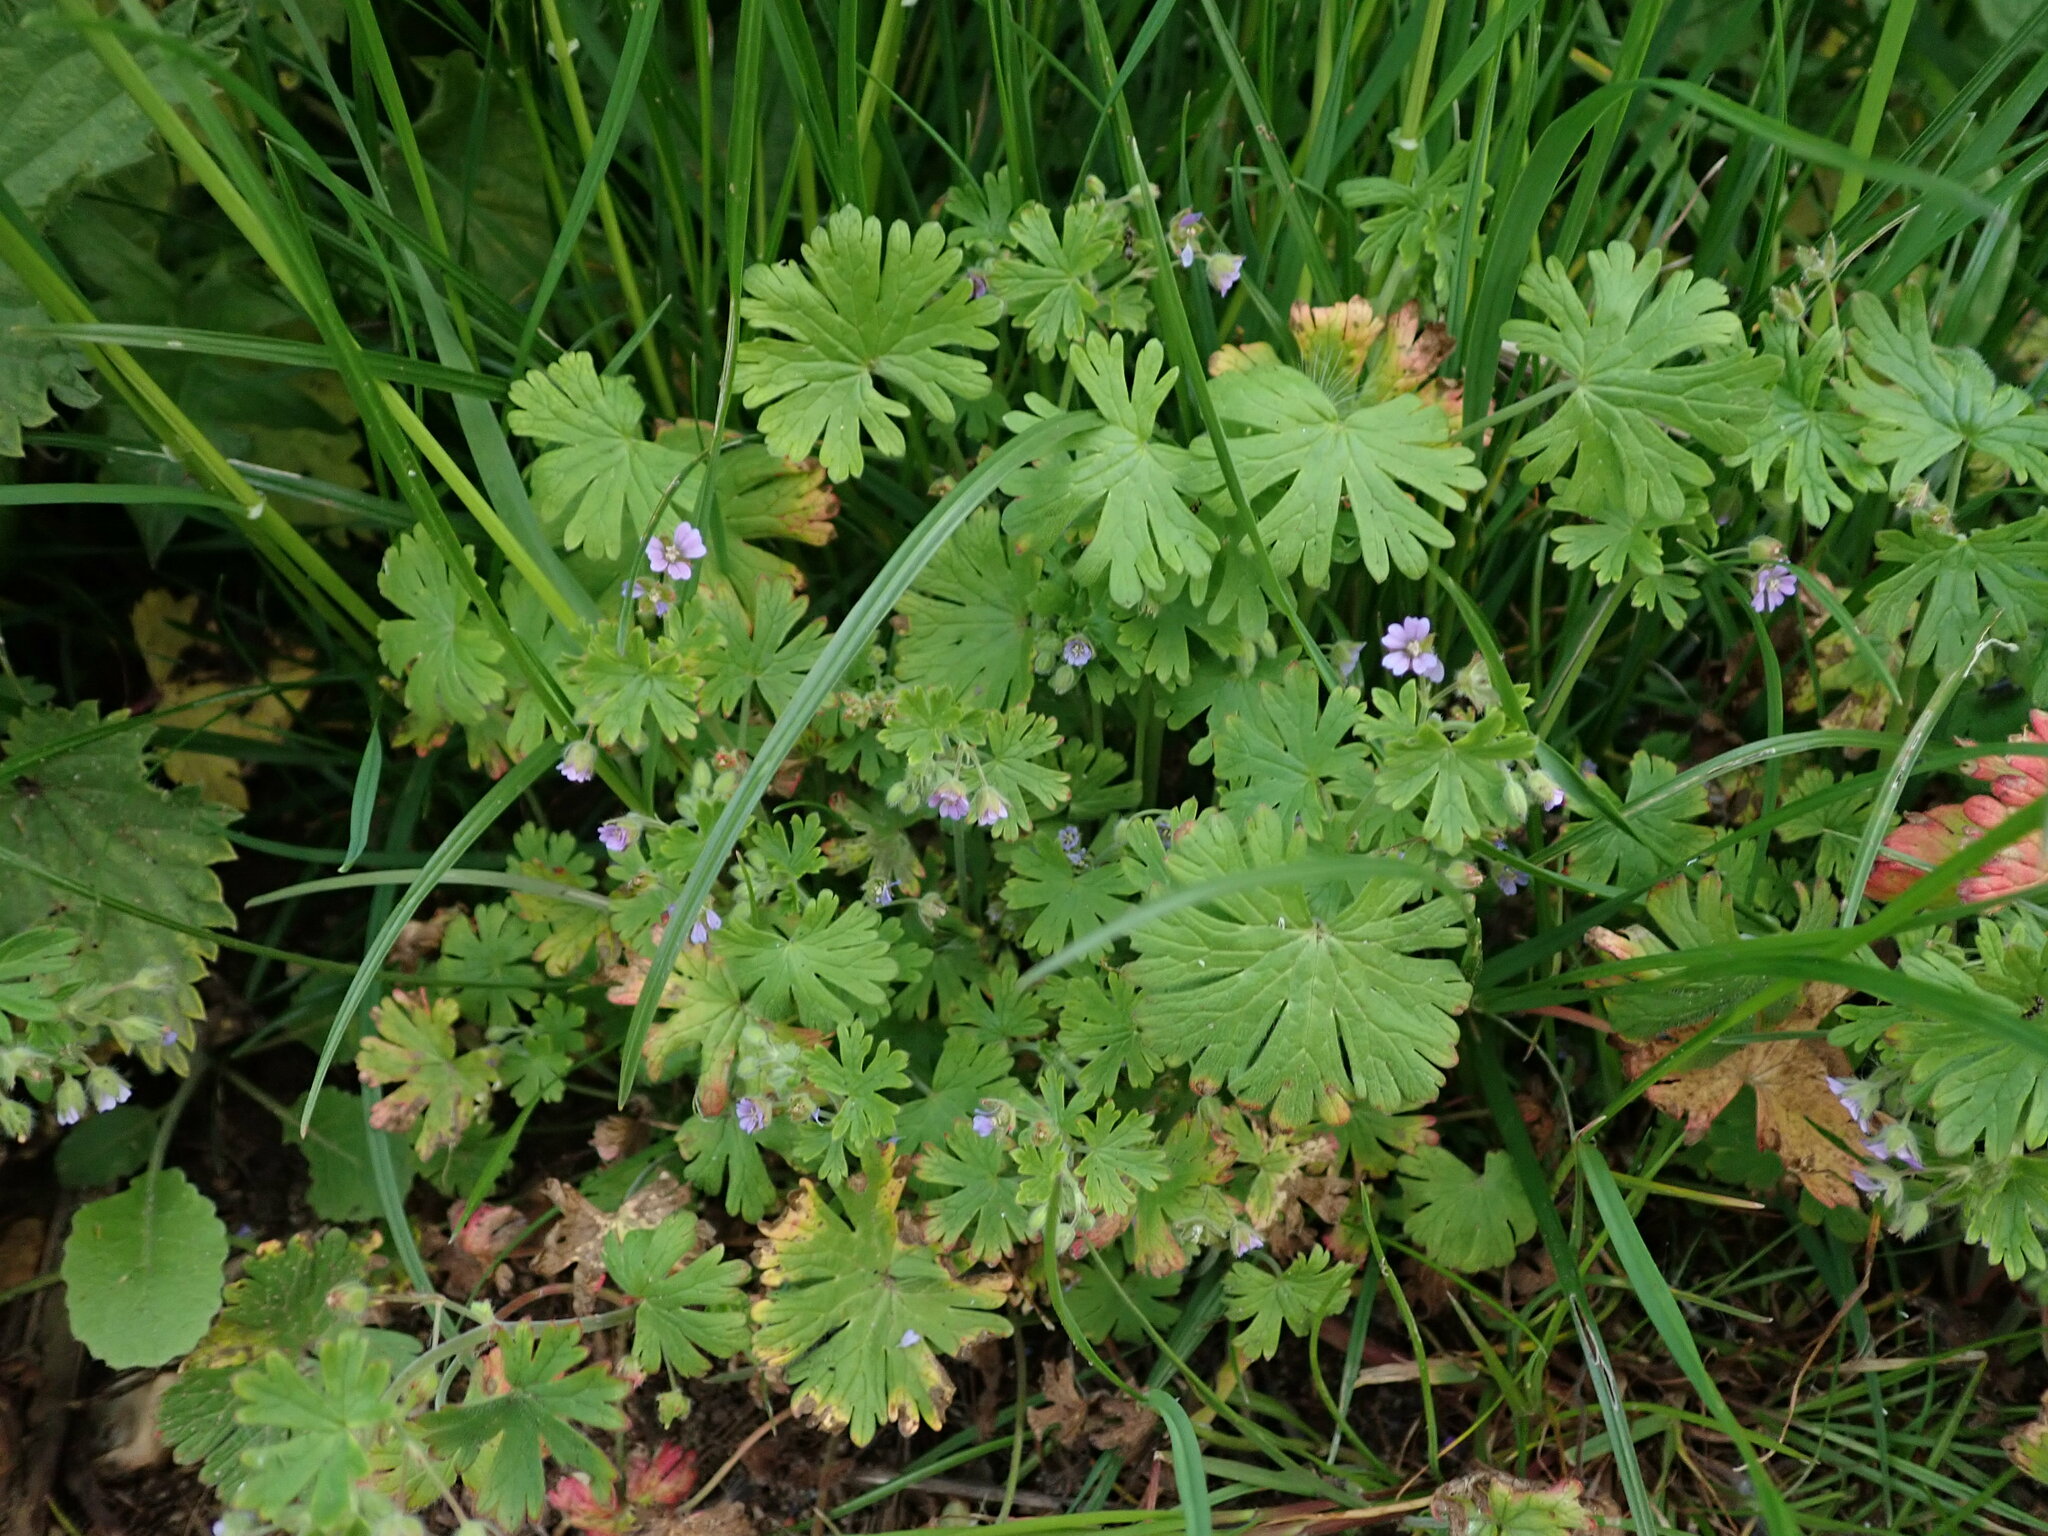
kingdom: Plantae
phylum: Tracheophyta
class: Magnoliopsida
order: Geraniales
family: Geraniaceae
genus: Geranium
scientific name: Geranium pusillum
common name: Small geranium
